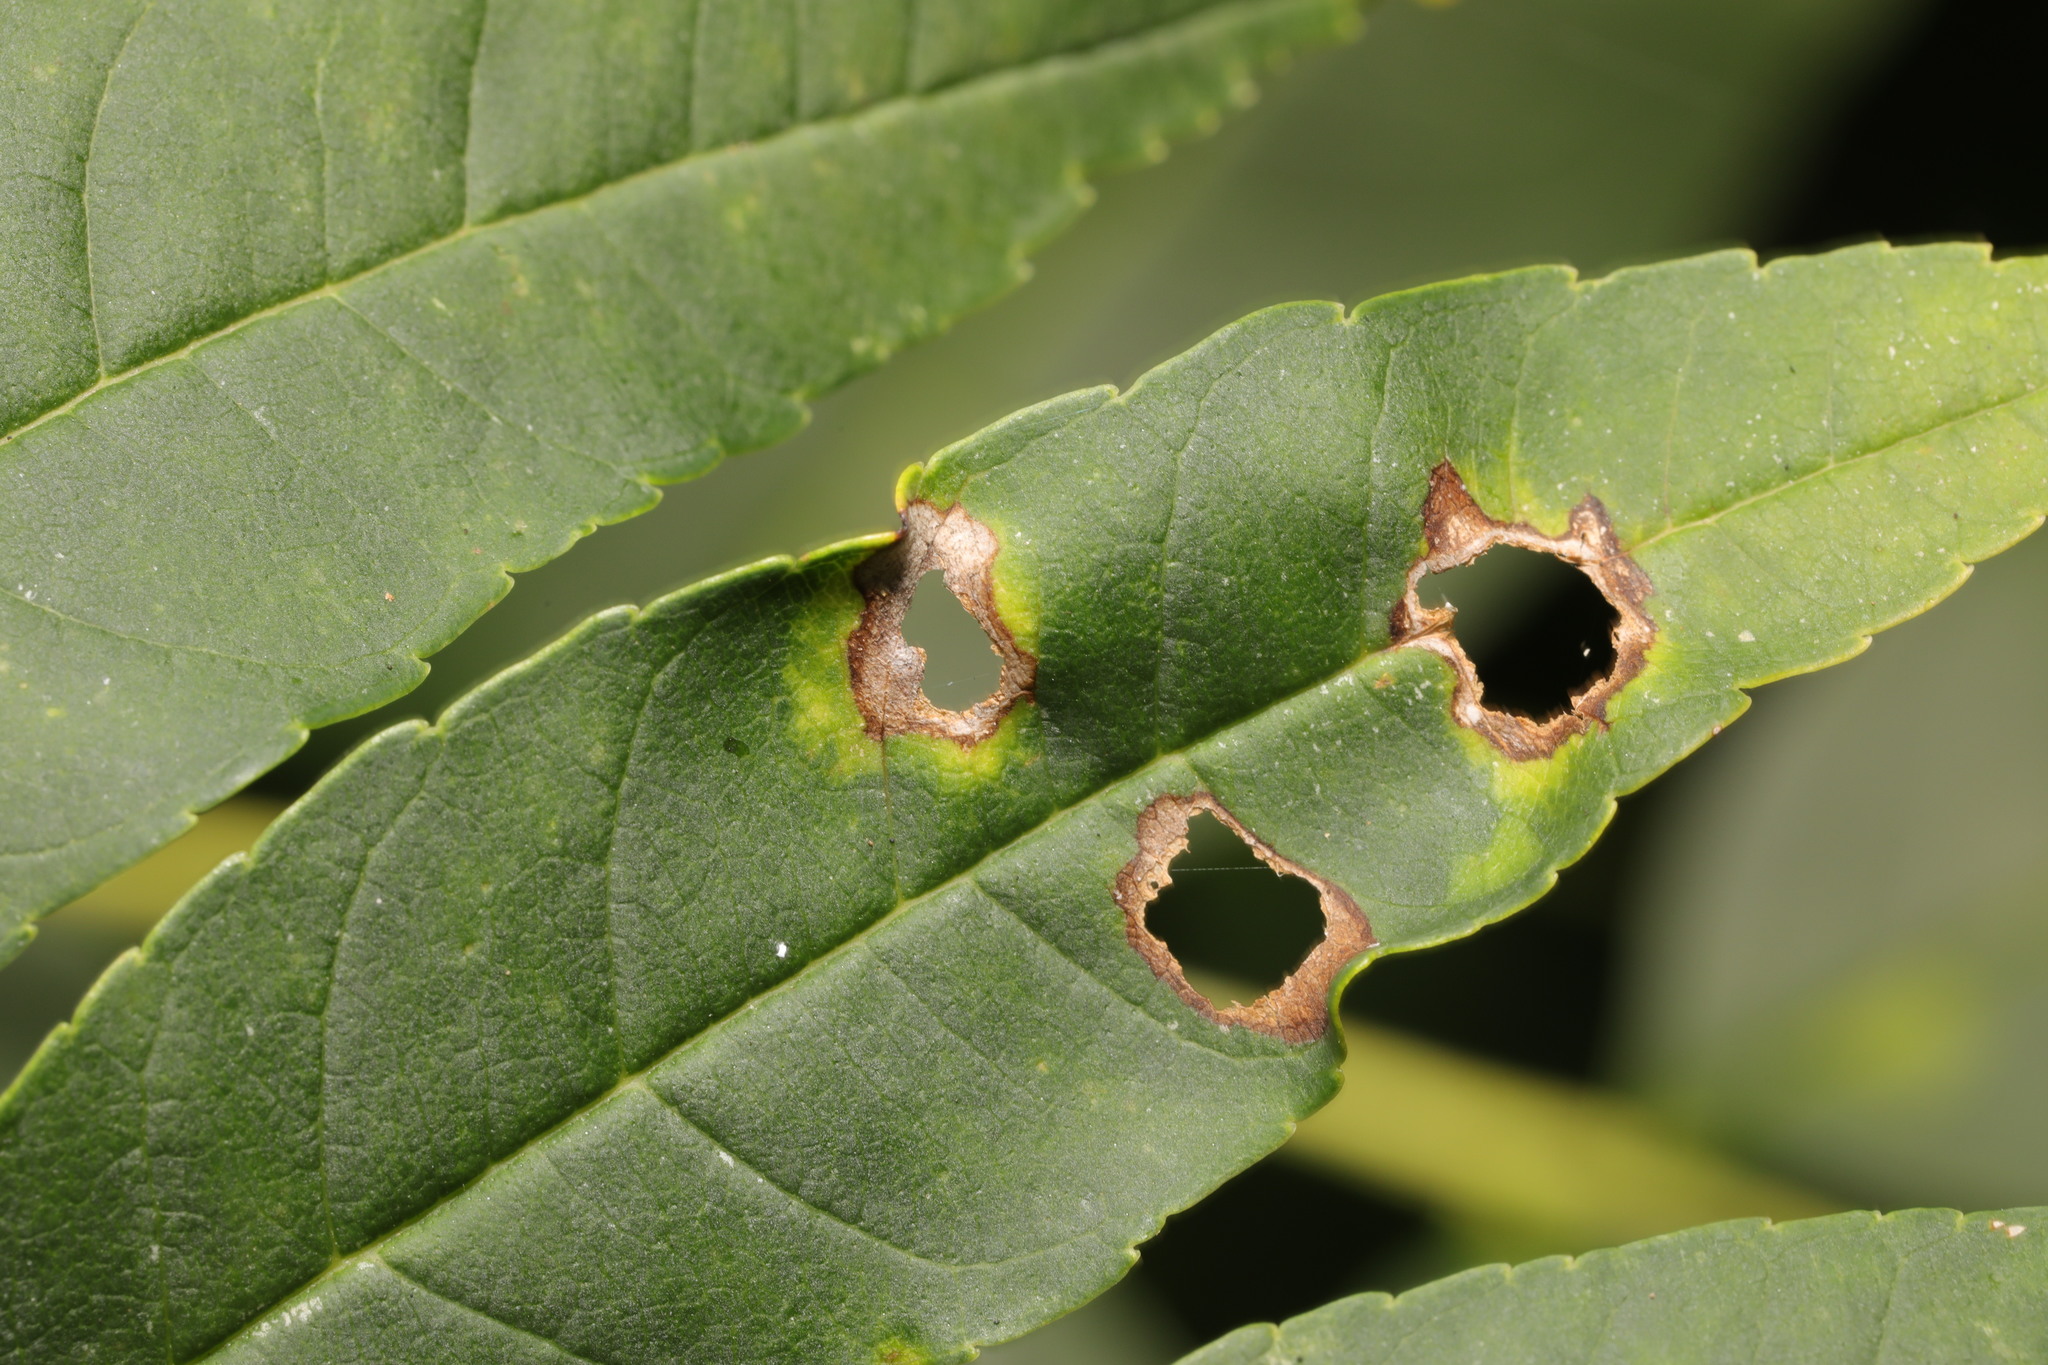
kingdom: Animalia
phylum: Arthropoda
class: Insecta
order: Diptera
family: Cecidomyiidae
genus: Dasineura
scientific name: Dasineura fraxinea
